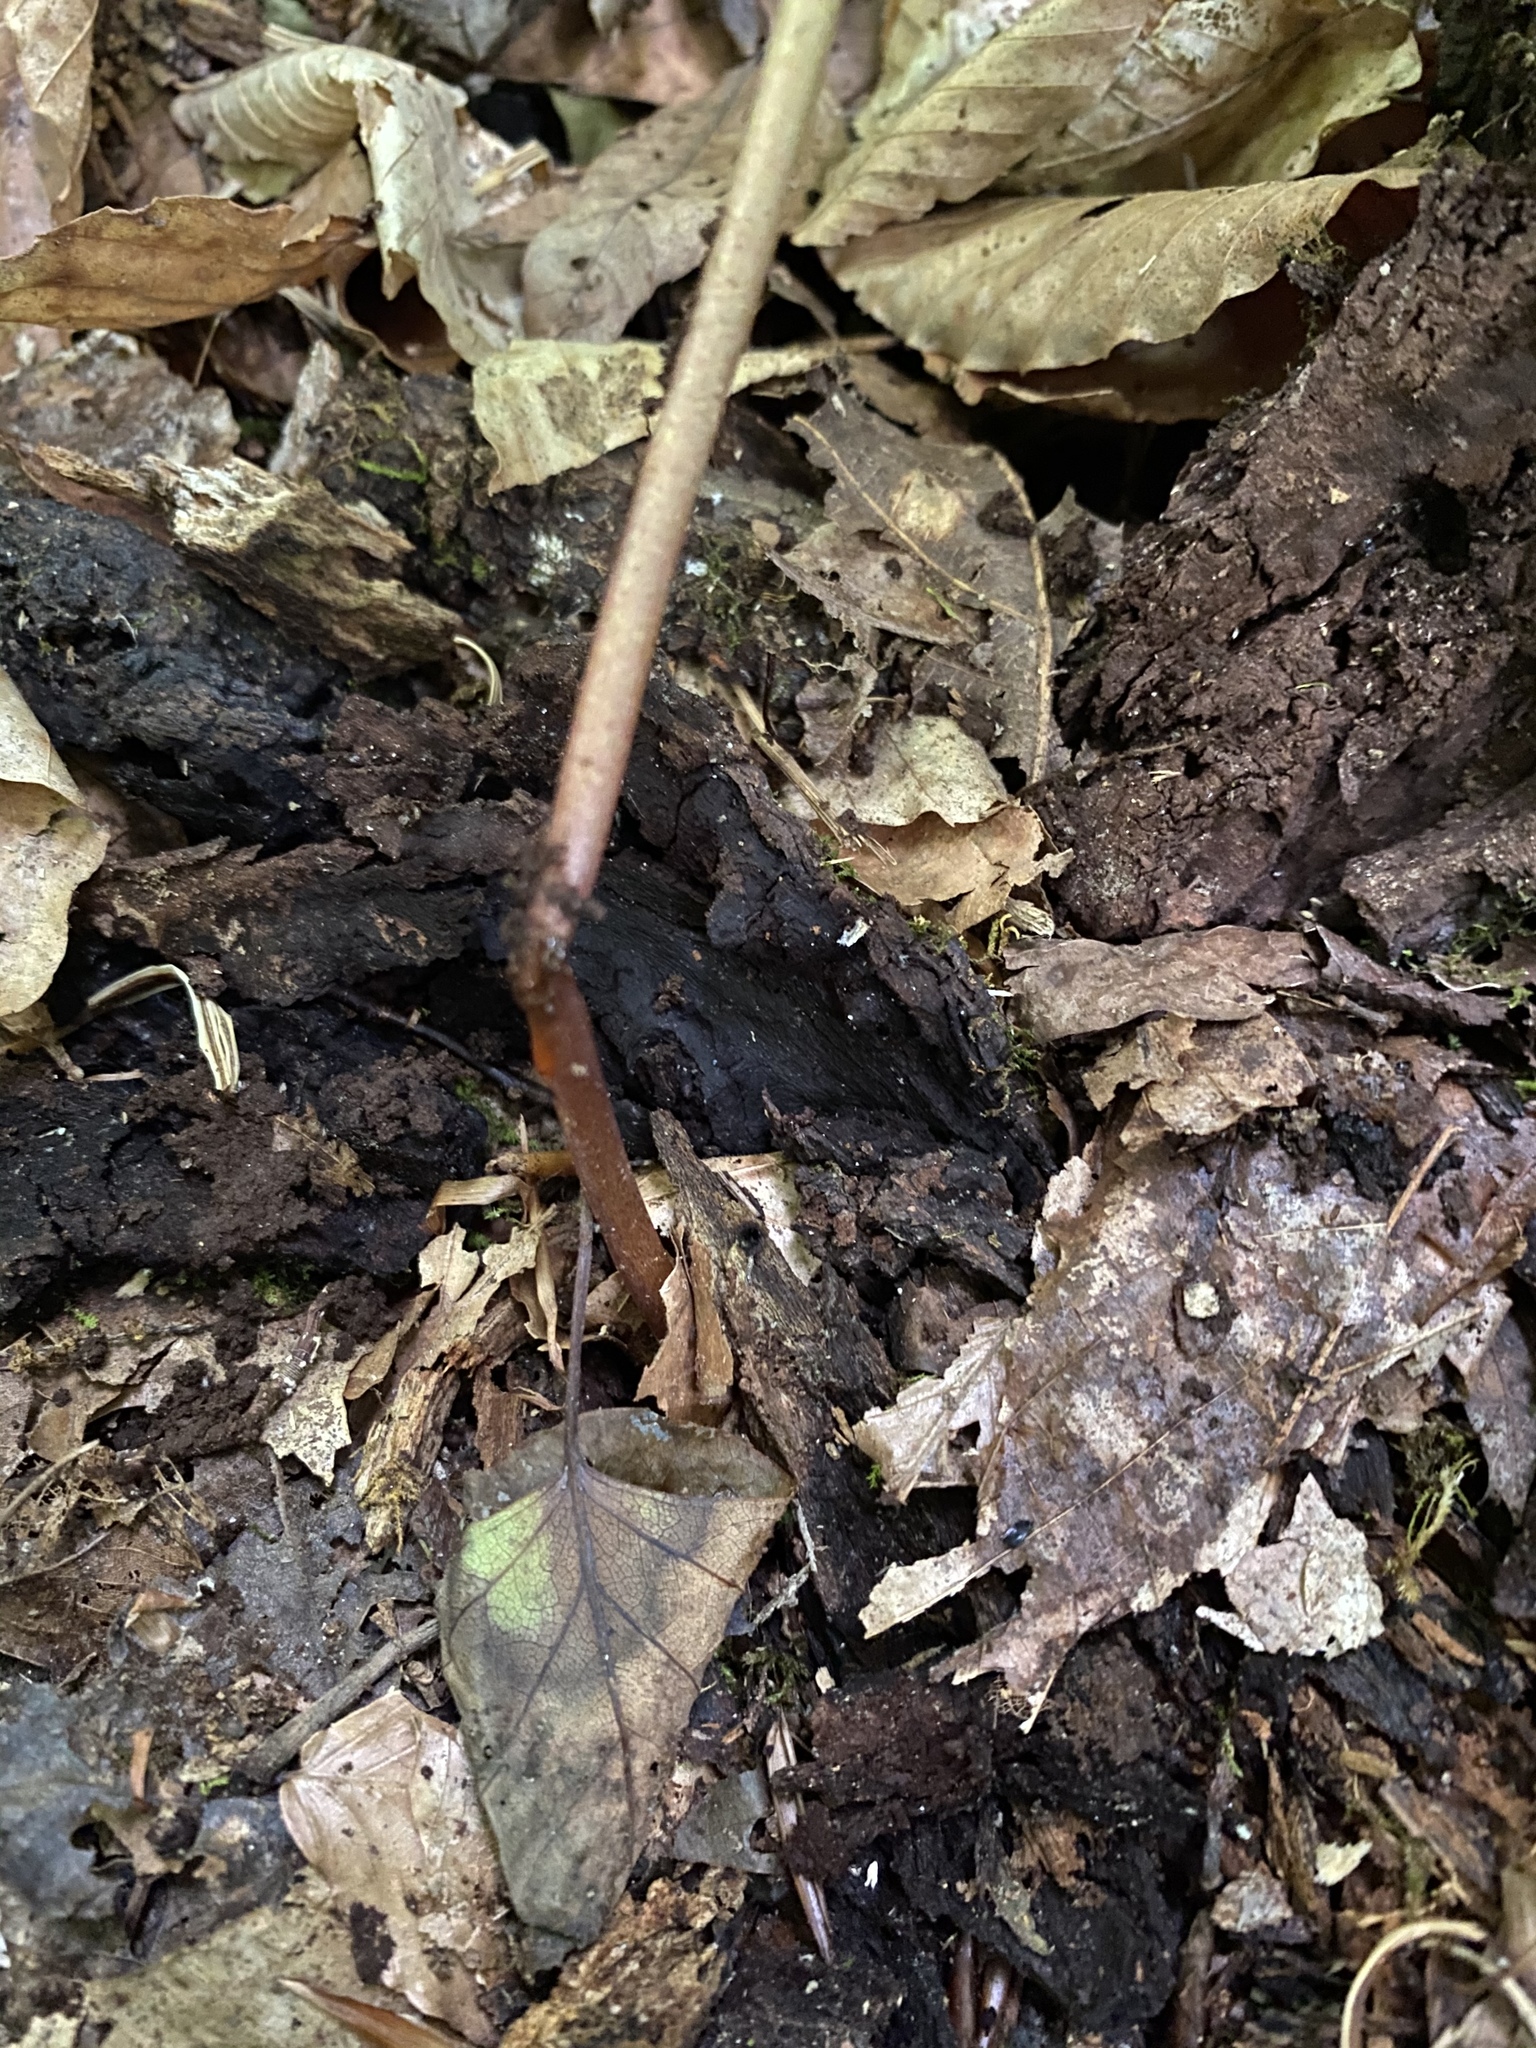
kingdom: Plantae
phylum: Tracheophyta
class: Magnoliopsida
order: Ranunculales
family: Papaveraceae
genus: Sanguinaria
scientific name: Sanguinaria canadensis
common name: Bloodroot
